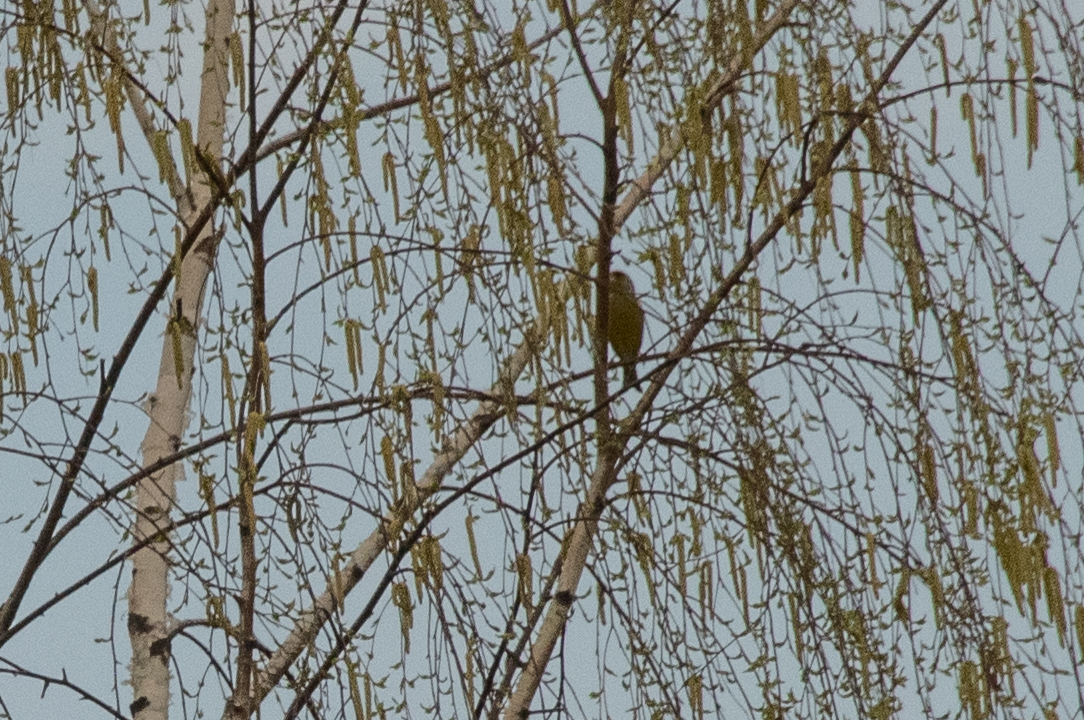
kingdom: Plantae
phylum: Tracheophyta
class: Liliopsida
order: Poales
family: Poaceae
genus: Chloris
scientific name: Chloris chloris
